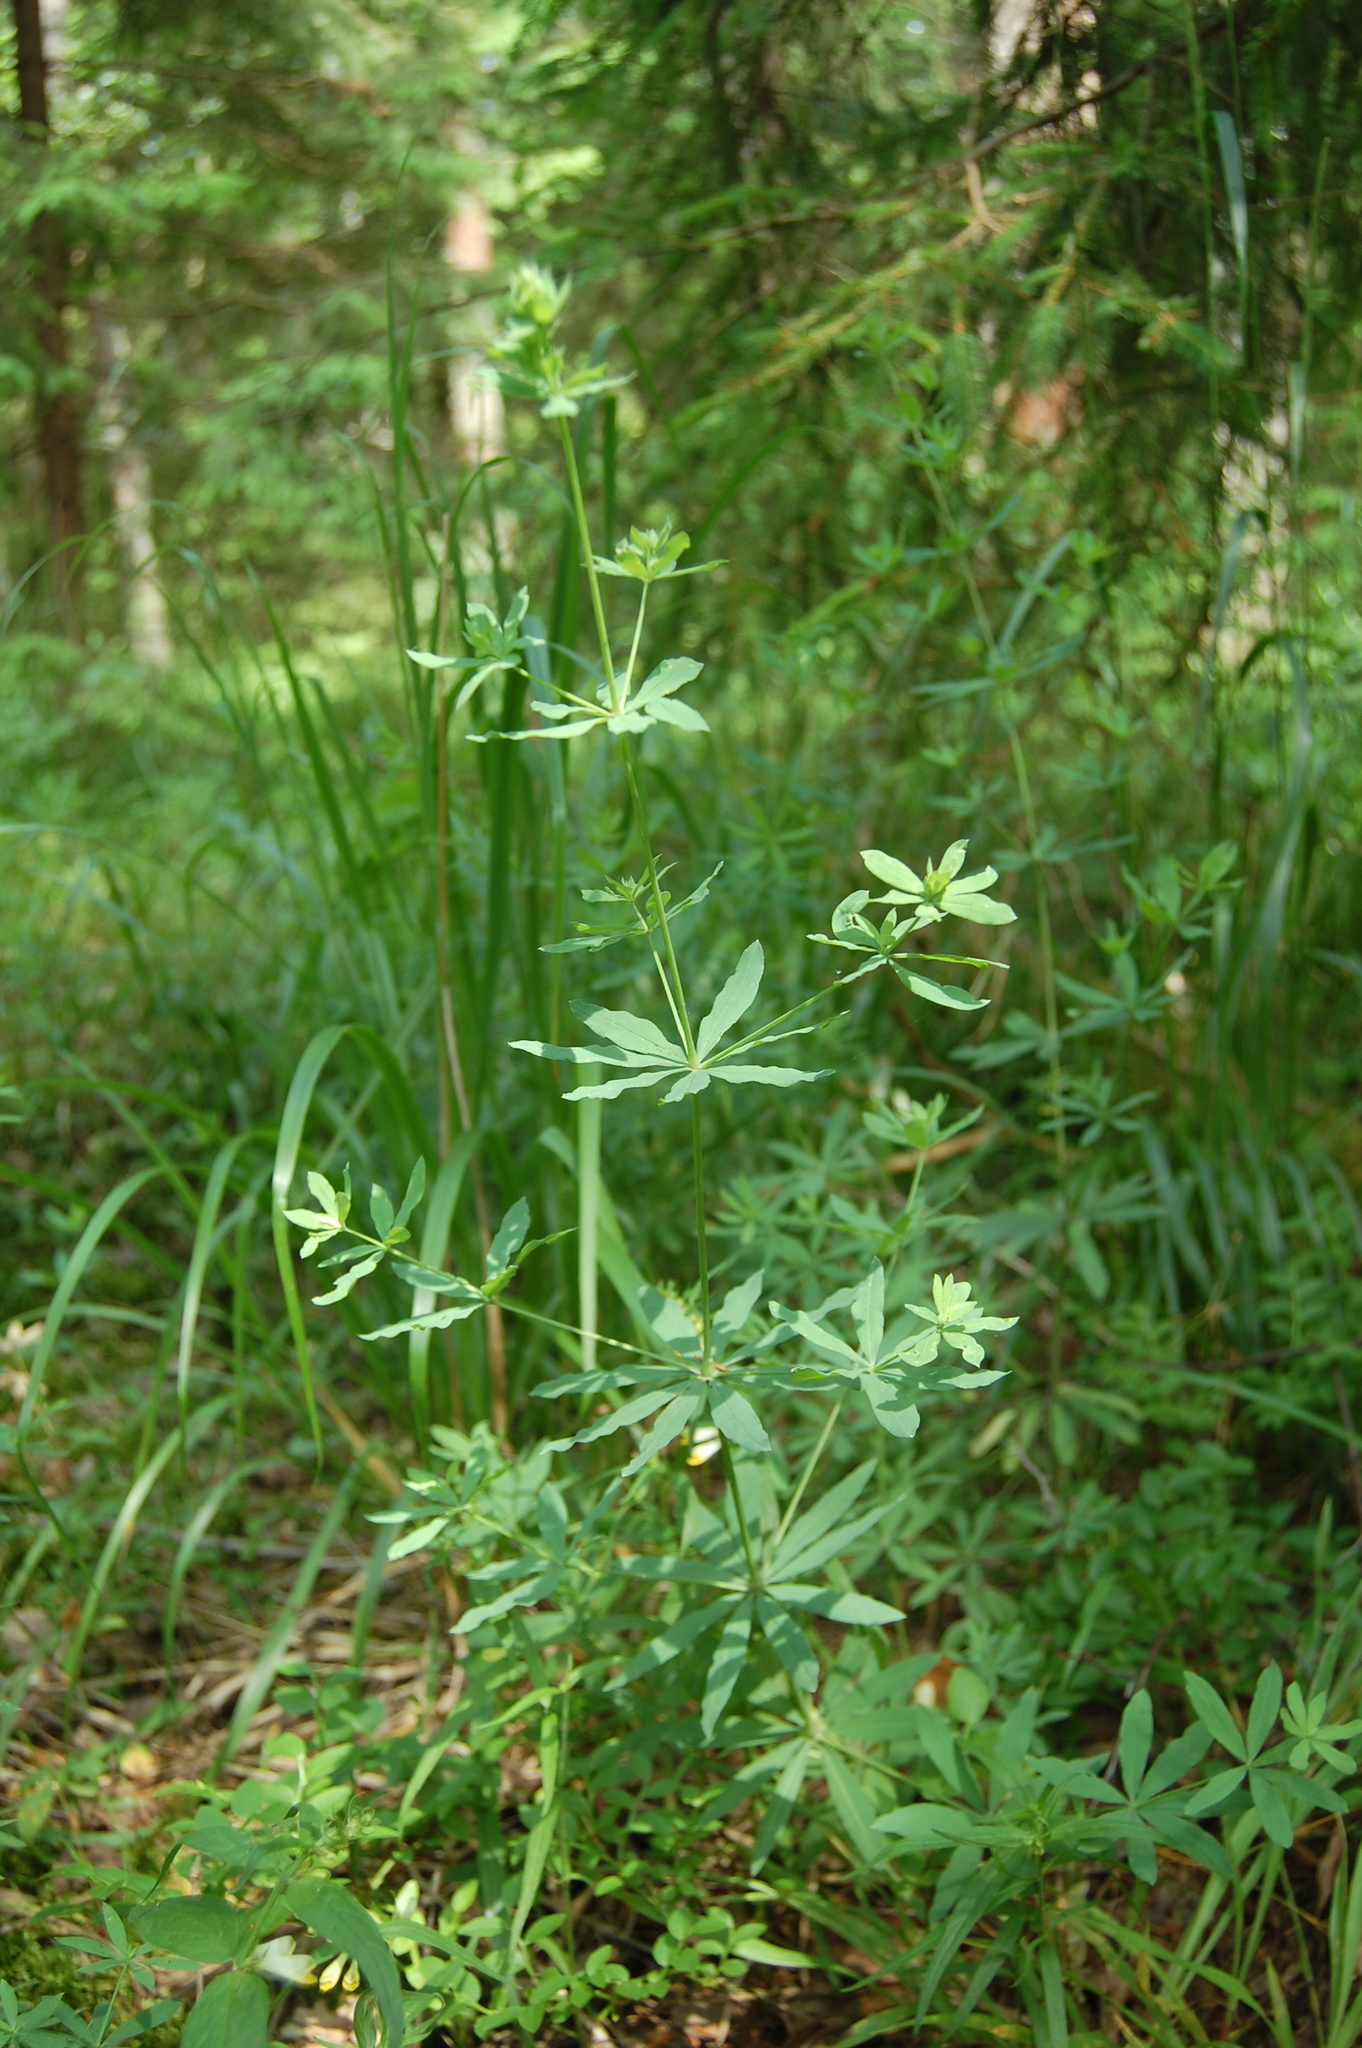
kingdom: Plantae
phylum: Tracheophyta
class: Magnoliopsida
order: Gentianales
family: Rubiaceae
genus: Galium
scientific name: Galium intermedium
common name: Bedstraw
